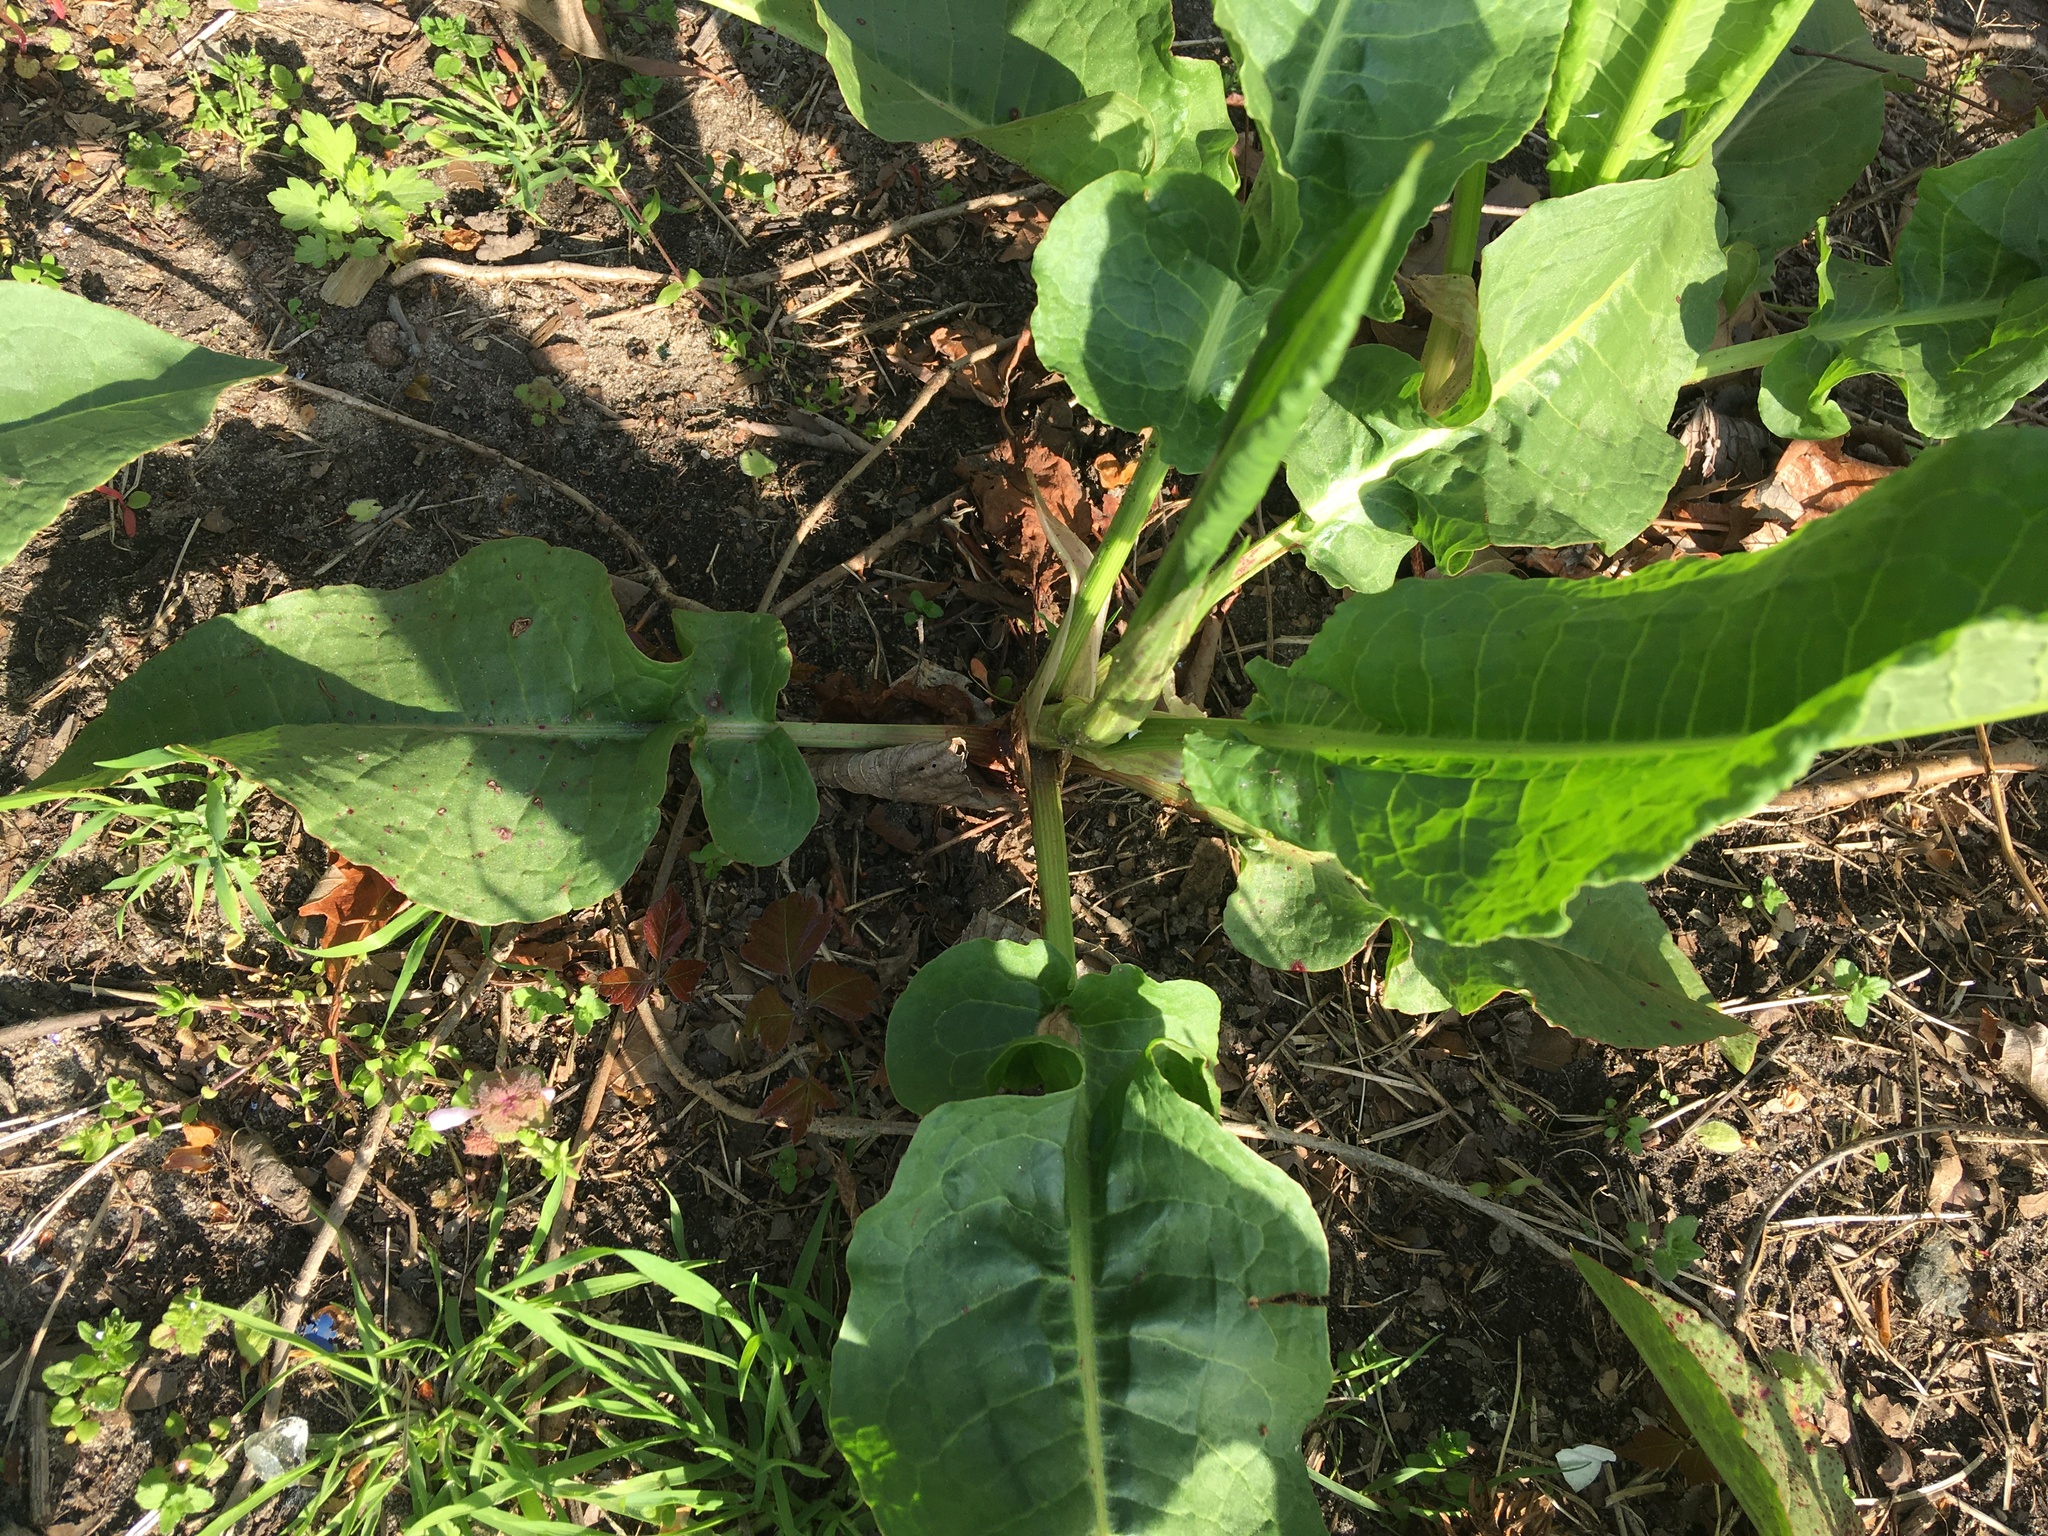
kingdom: Plantae
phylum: Tracheophyta
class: Magnoliopsida
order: Caryophyllales
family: Polygonaceae
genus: Rumex
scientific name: Rumex obtusifolius
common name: Bitter dock
